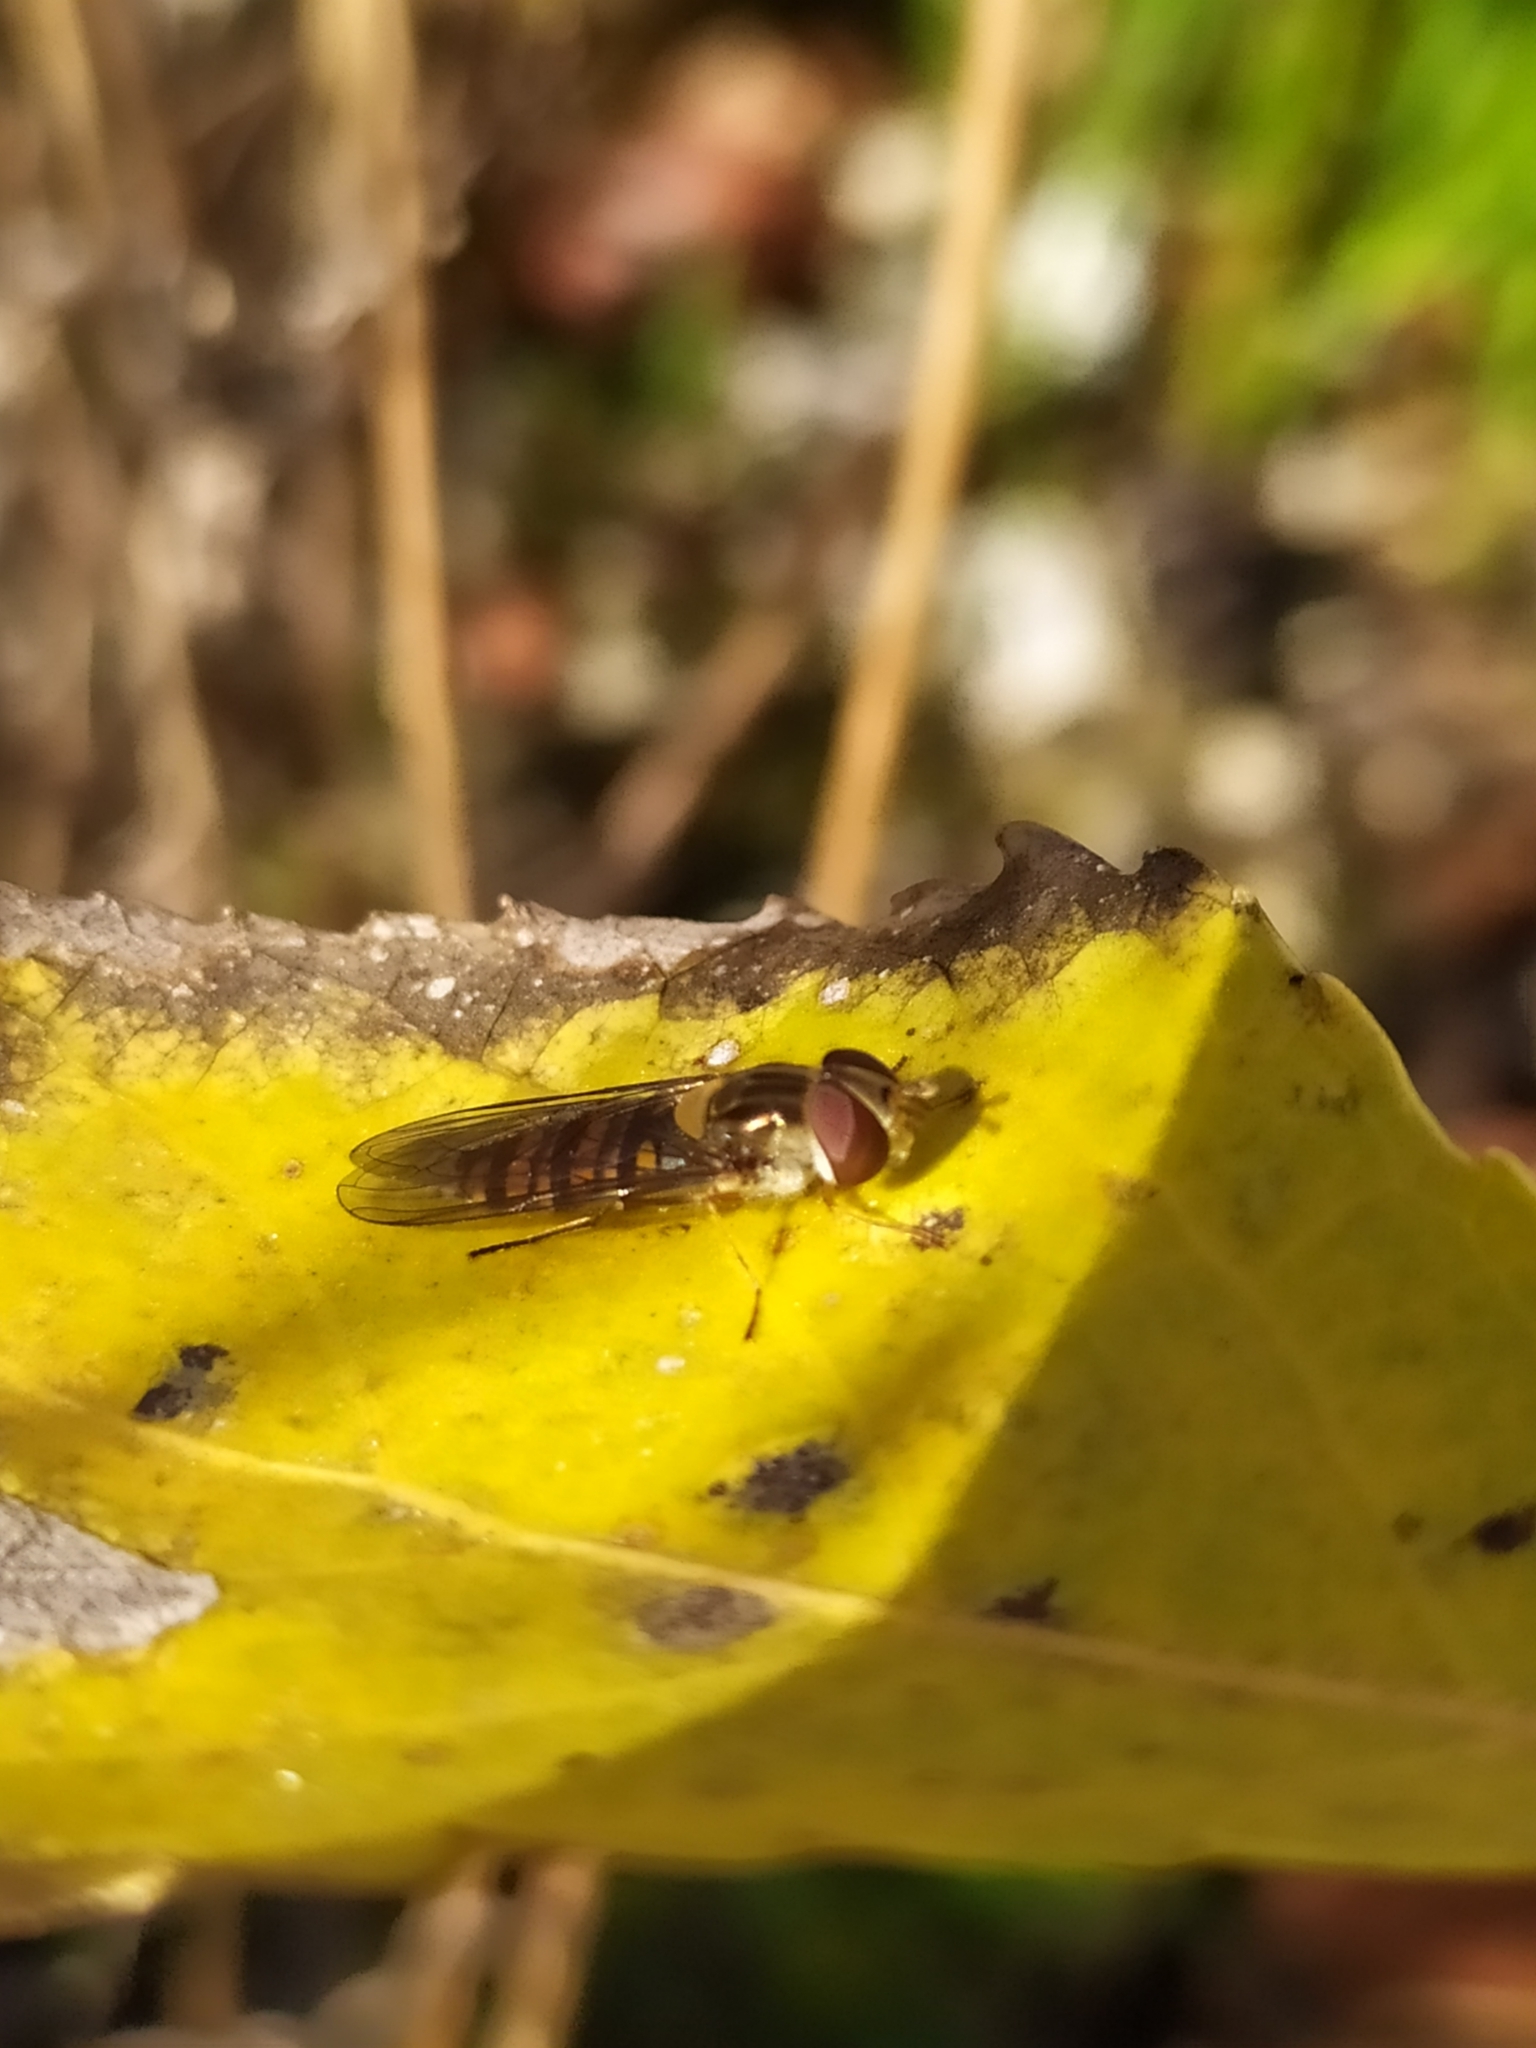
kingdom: Animalia
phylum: Arthropoda
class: Insecta
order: Diptera
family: Syrphidae
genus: Episyrphus
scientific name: Episyrphus balteatus
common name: Marmalade hoverfly
